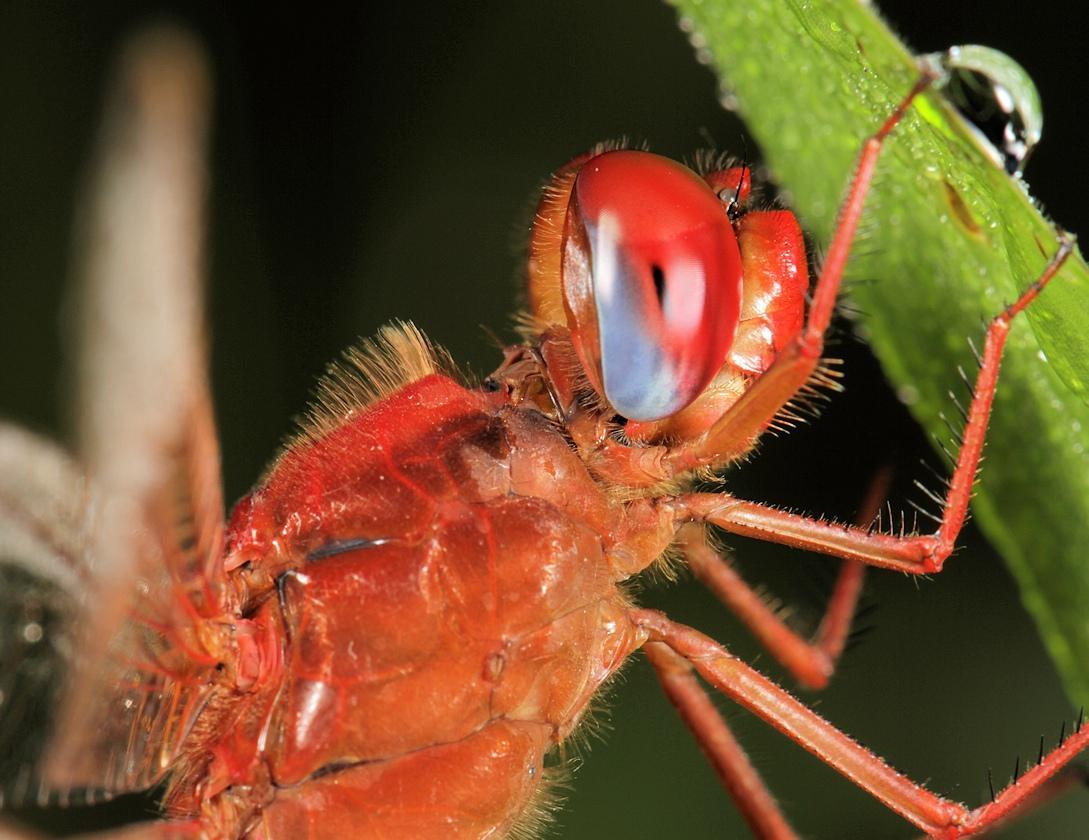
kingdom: Animalia
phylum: Arthropoda
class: Insecta
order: Odonata
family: Libellulidae
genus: Crocothemis
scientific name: Crocothemis erythraea
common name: Scarlet dragonfly
